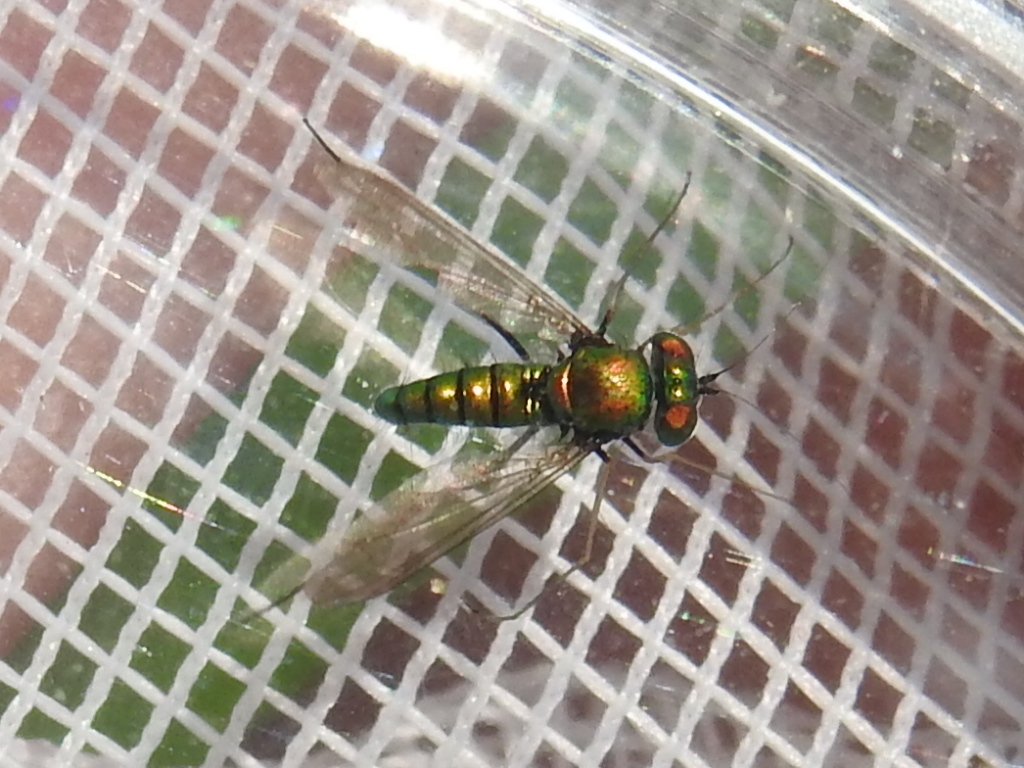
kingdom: Animalia
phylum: Arthropoda
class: Insecta
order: Diptera
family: Dolichopodidae
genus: Condylostylus
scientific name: Condylostylus comatus
